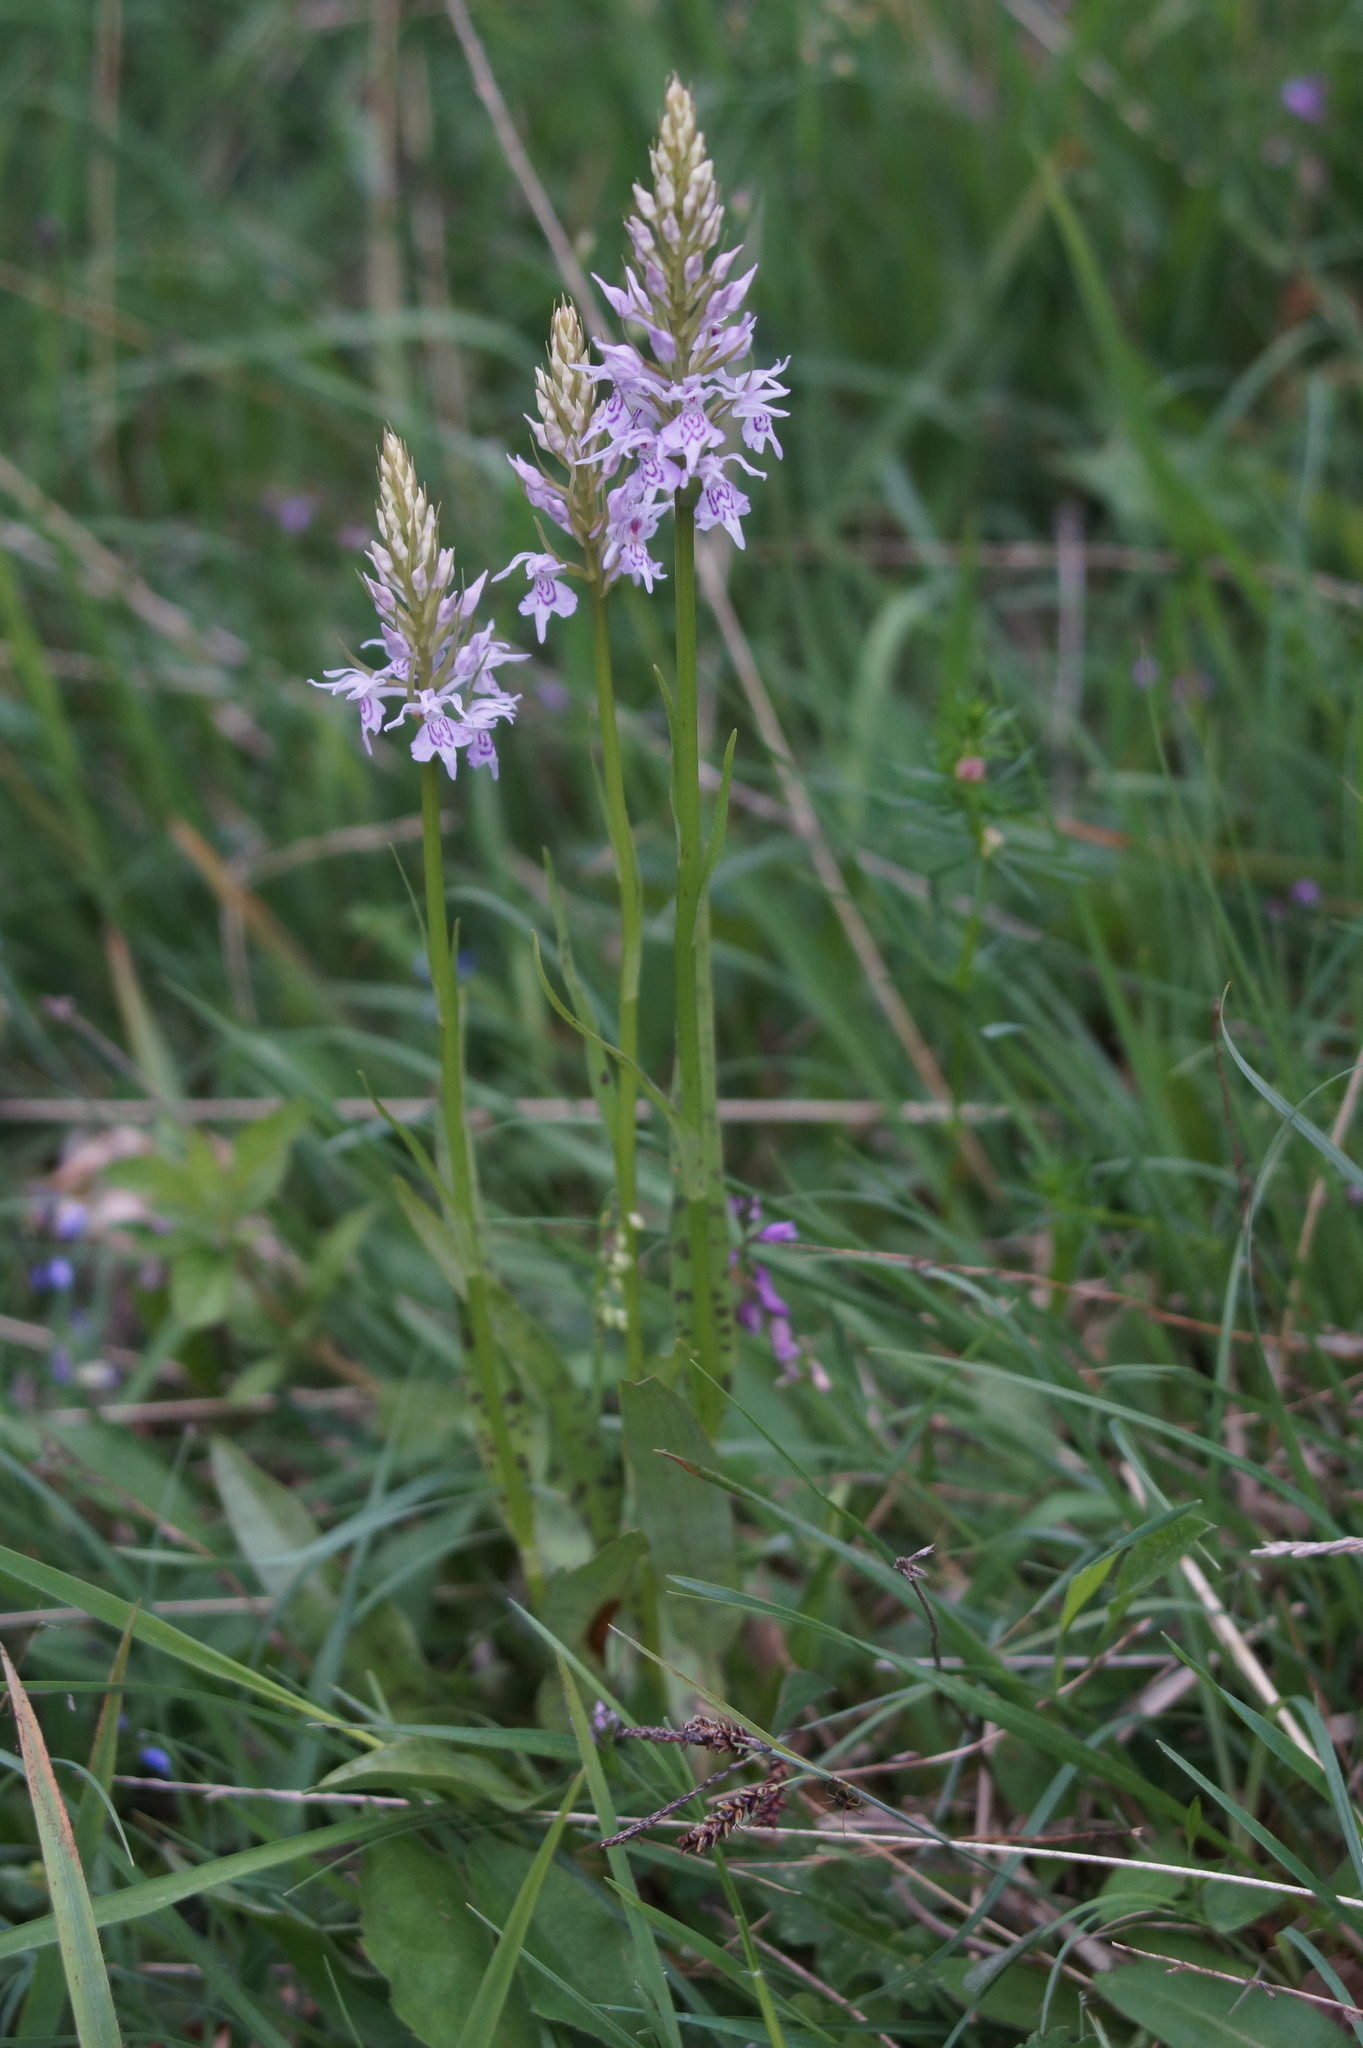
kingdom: Plantae
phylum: Tracheophyta
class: Liliopsida
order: Asparagales
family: Orchidaceae
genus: Dactylorhiza
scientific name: Dactylorhiza maculata
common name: Heath spotted-orchid
